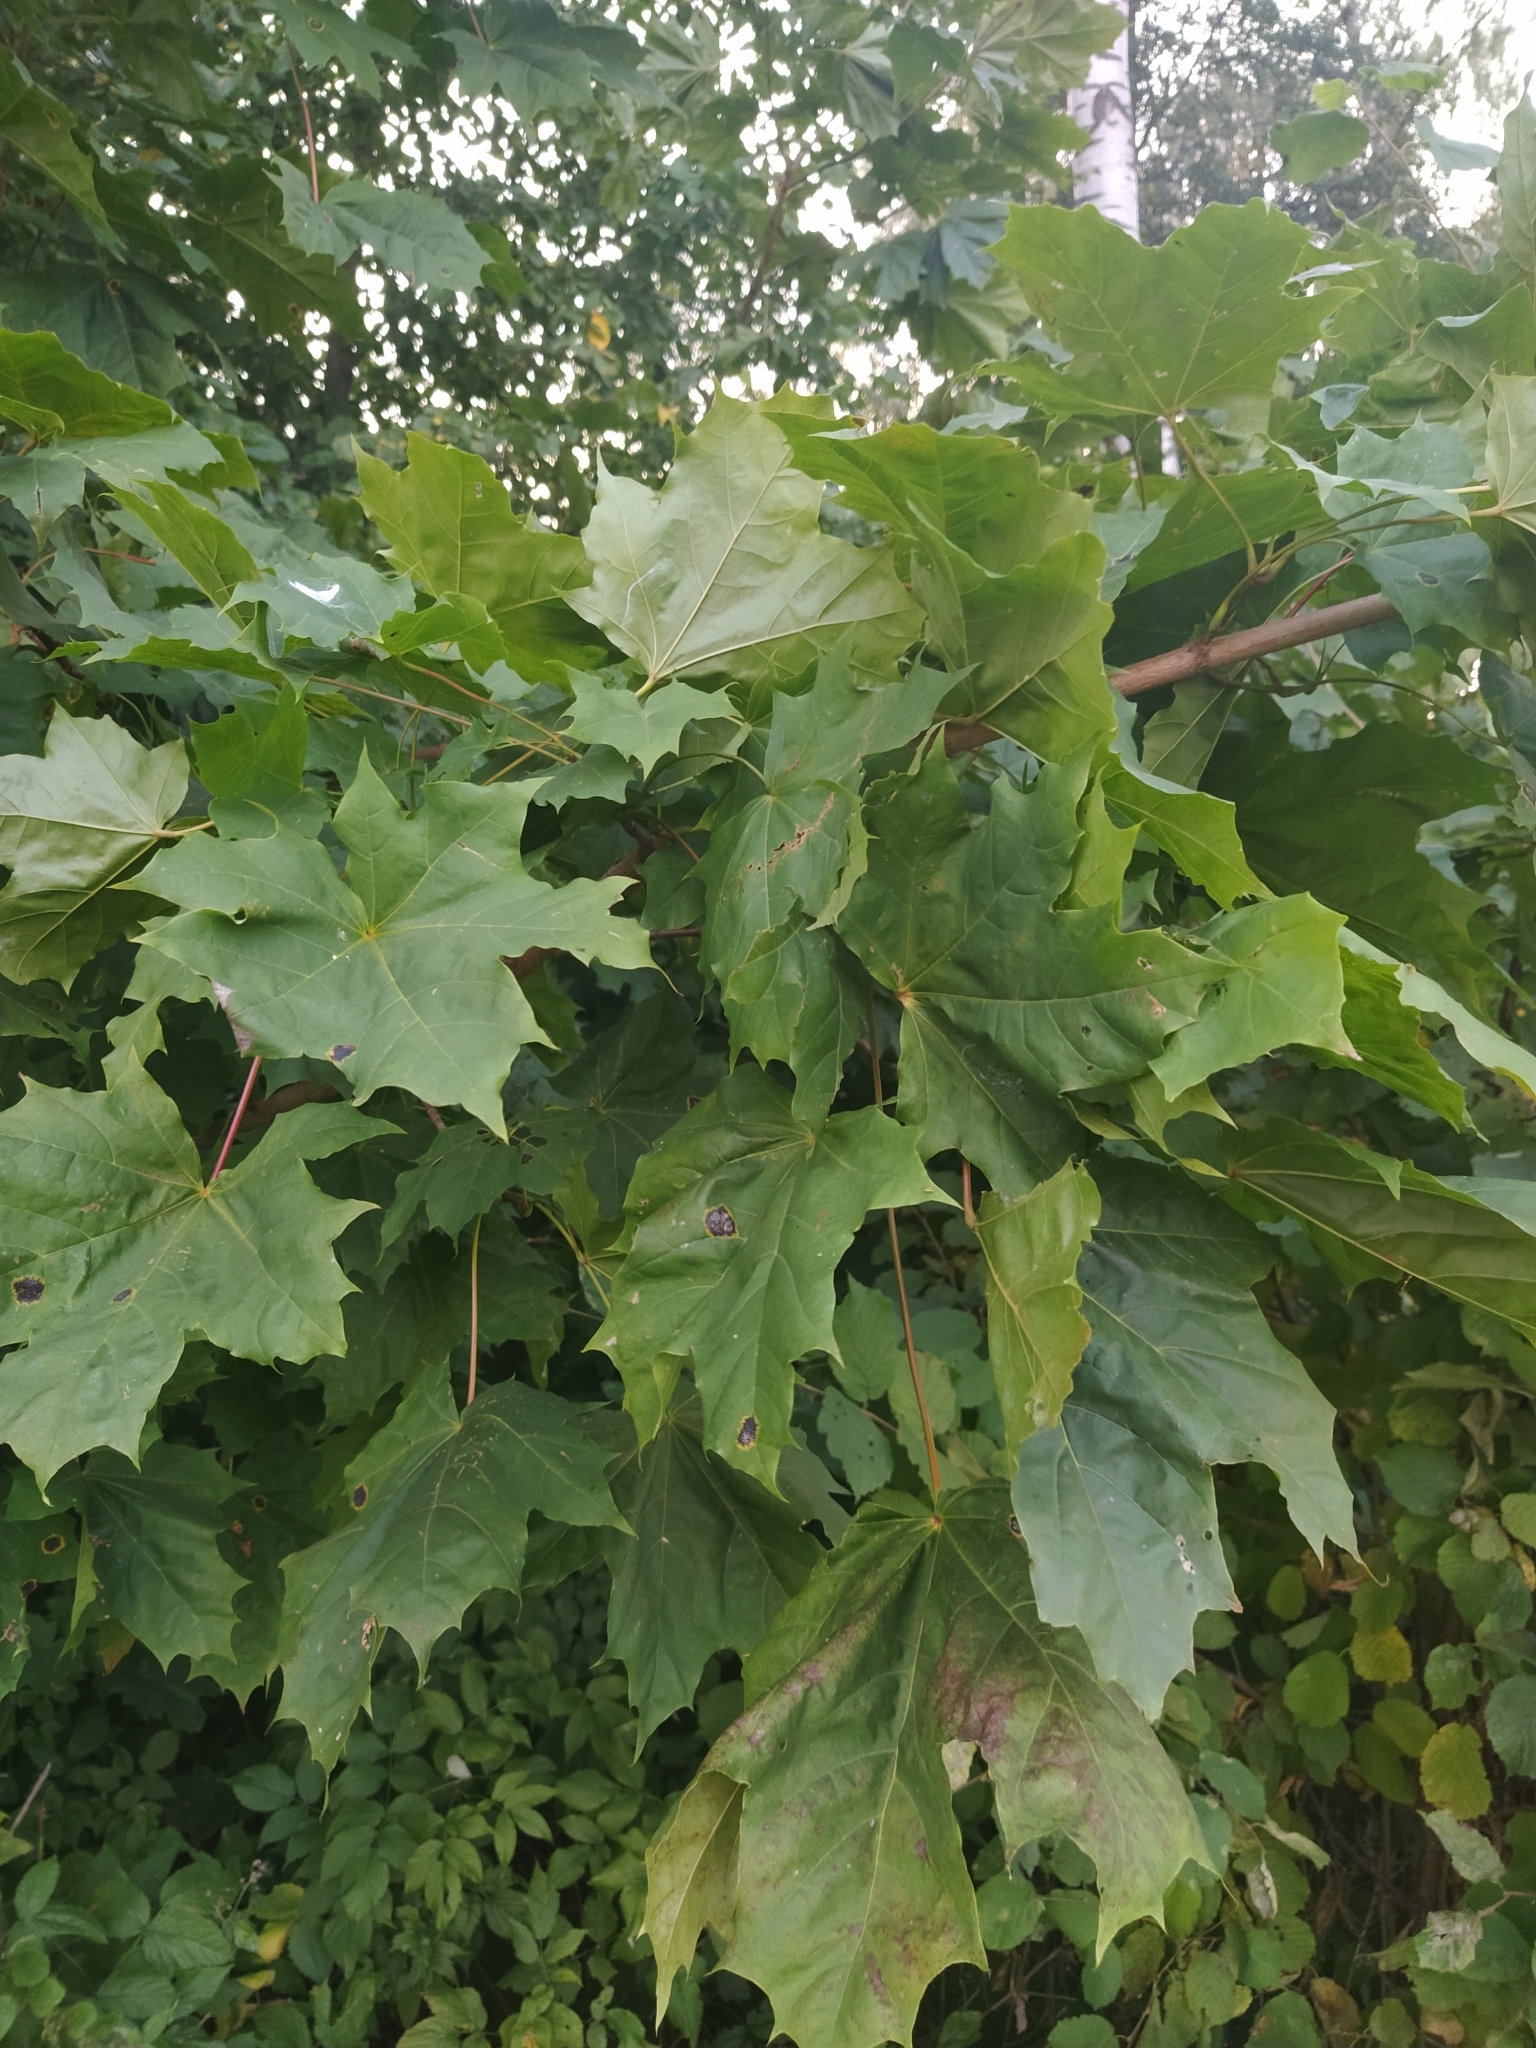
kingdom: Plantae
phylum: Tracheophyta
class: Magnoliopsida
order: Sapindales
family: Sapindaceae
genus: Acer
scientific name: Acer platanoides
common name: Norway maple
